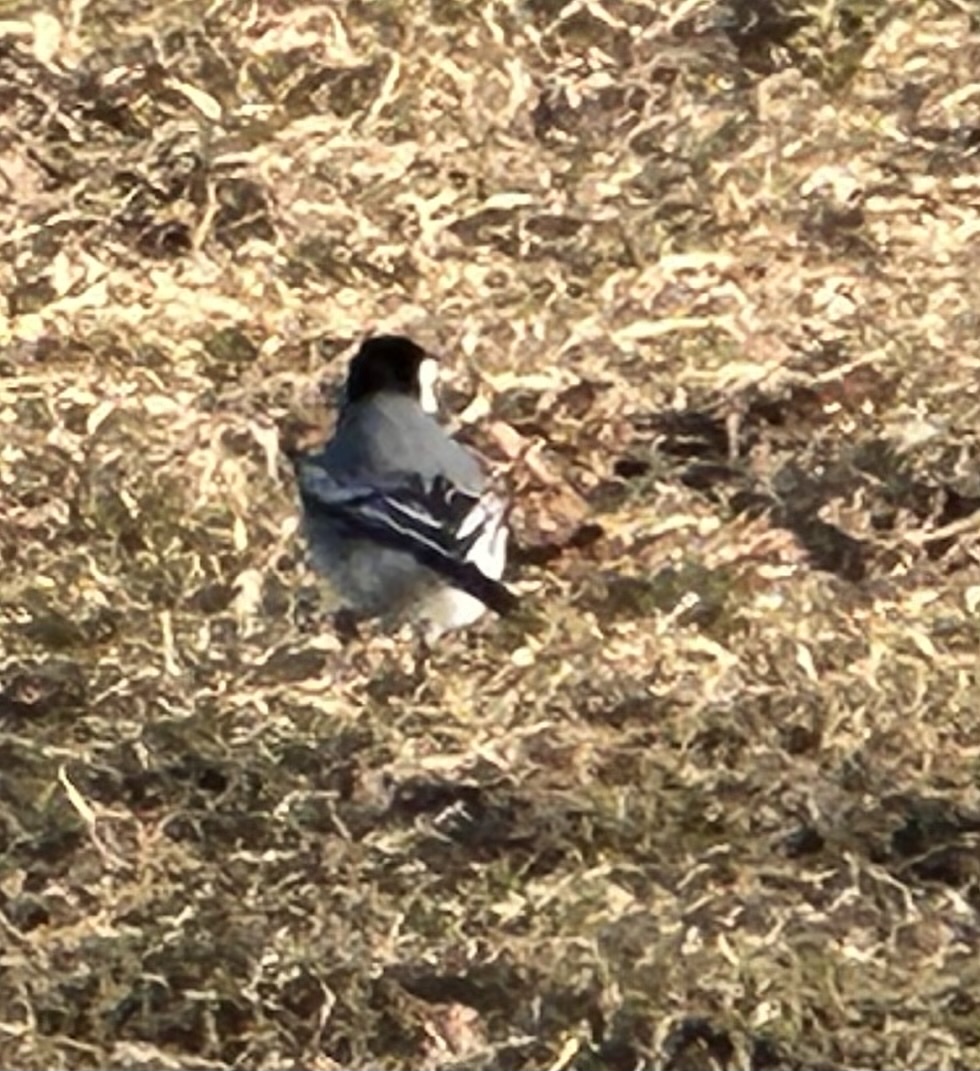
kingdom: Animalia
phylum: Chordata
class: Aves
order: Passeriformes
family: Motacillidae
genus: Motacilla
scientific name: Motacilla alba
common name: White wagtail
